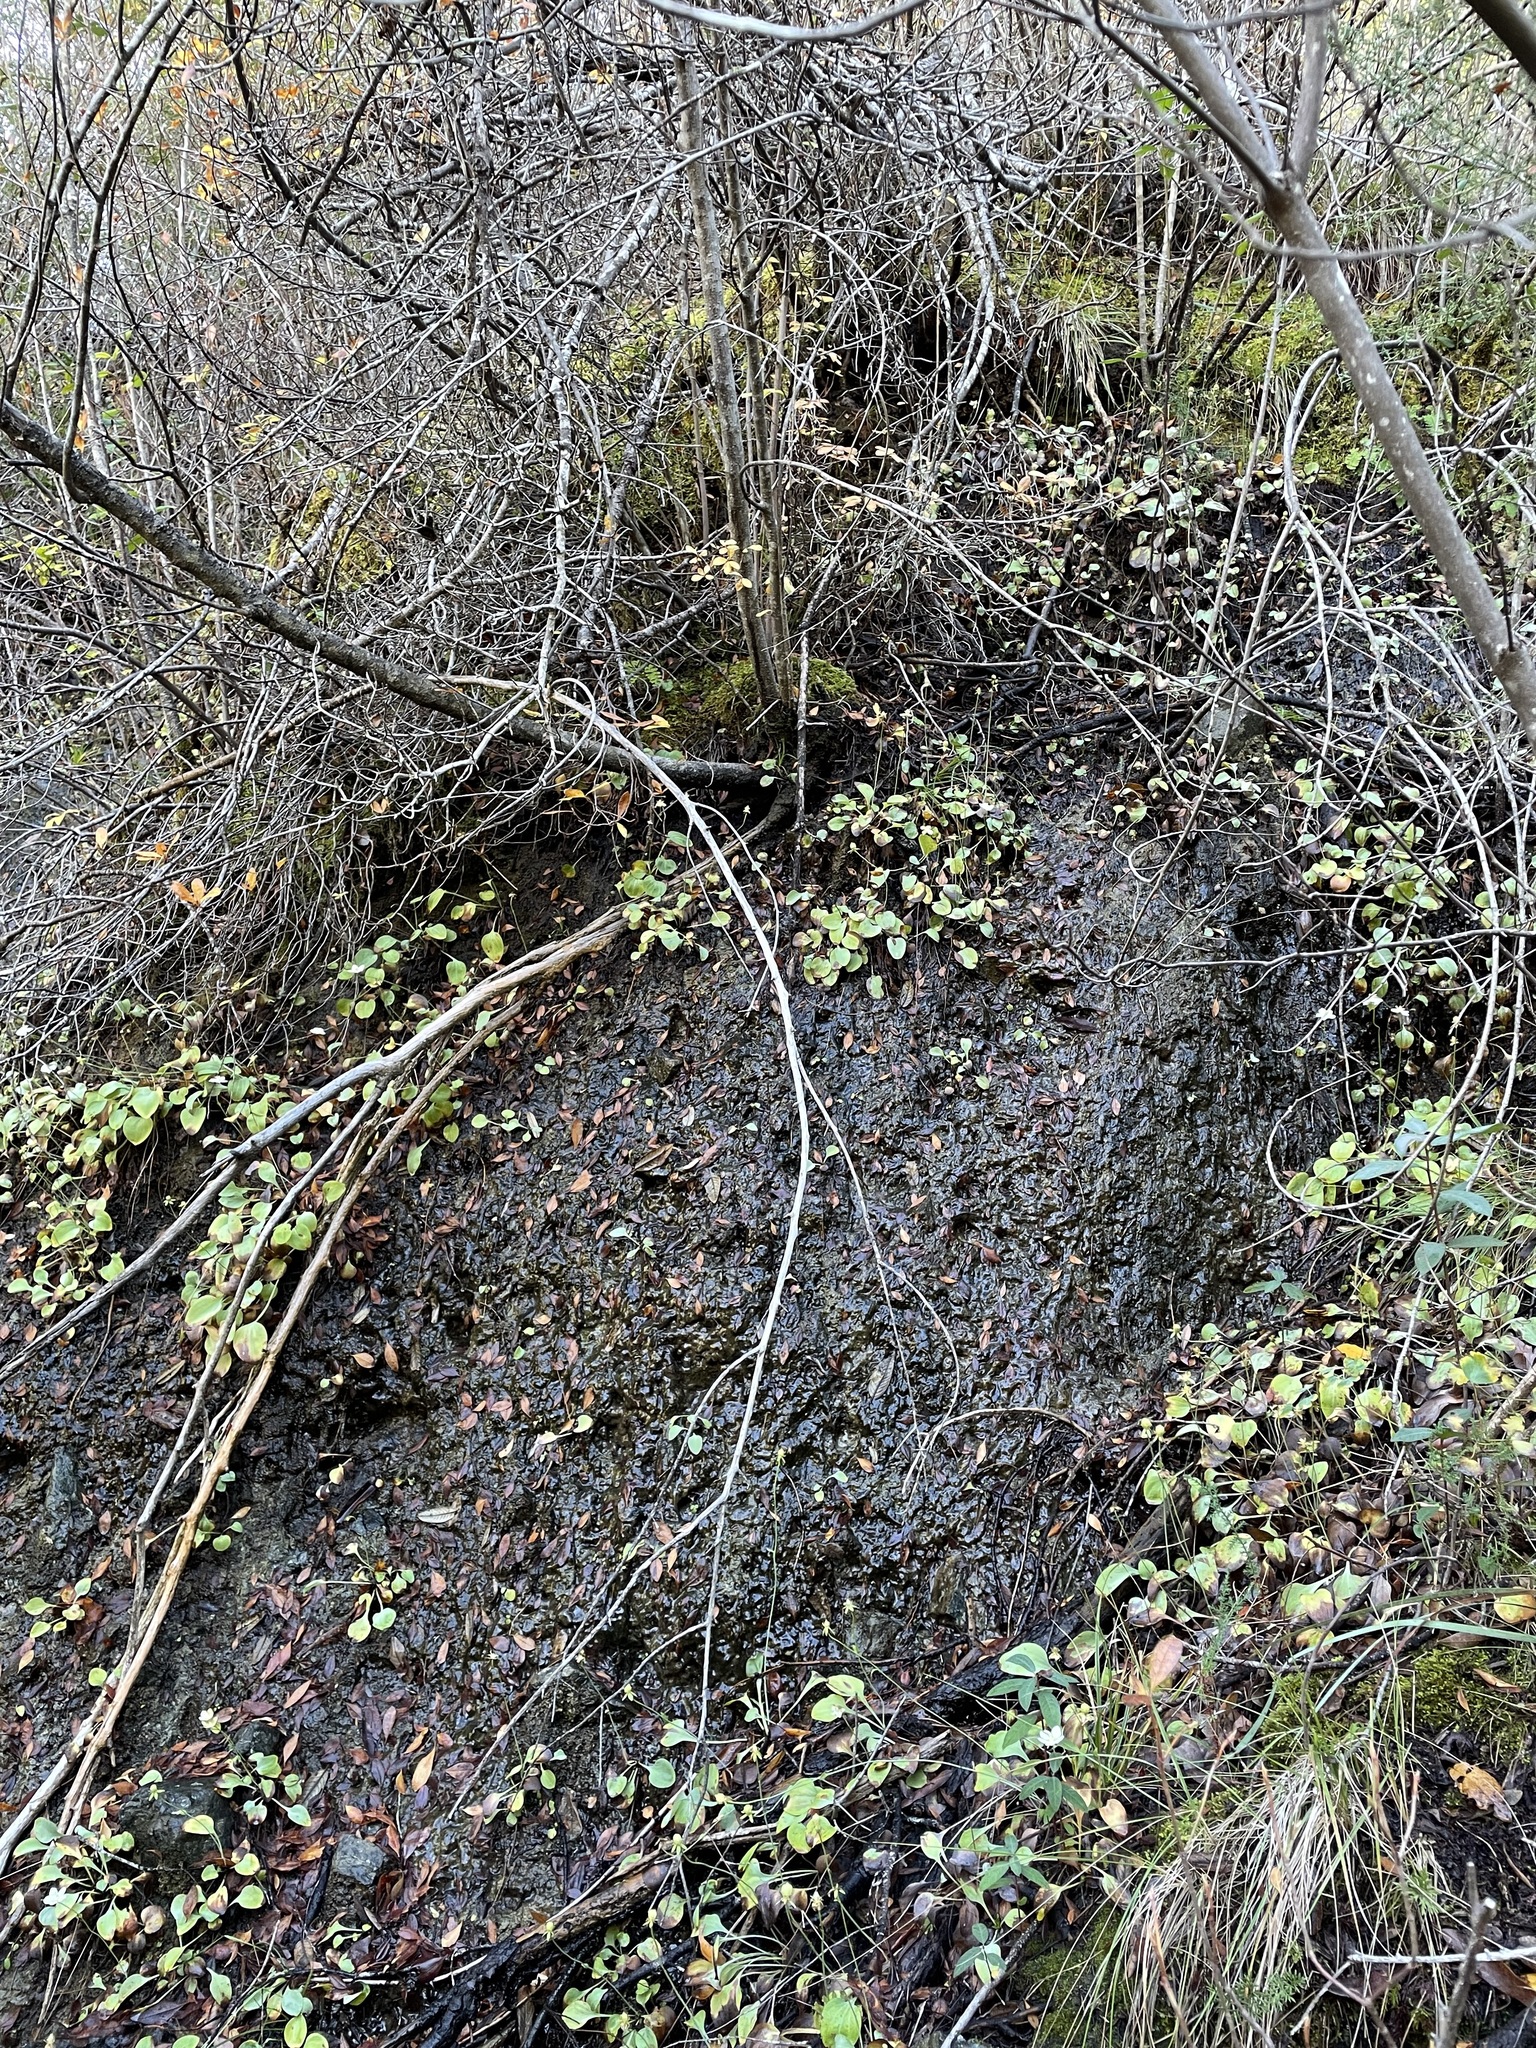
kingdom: Plantae
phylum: Tracheophyta
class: Magnoliopsida
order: Celastrales
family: Parnassiaceae
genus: Parnassia
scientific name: Parnassia palustris
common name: Grass-of-parnassus
